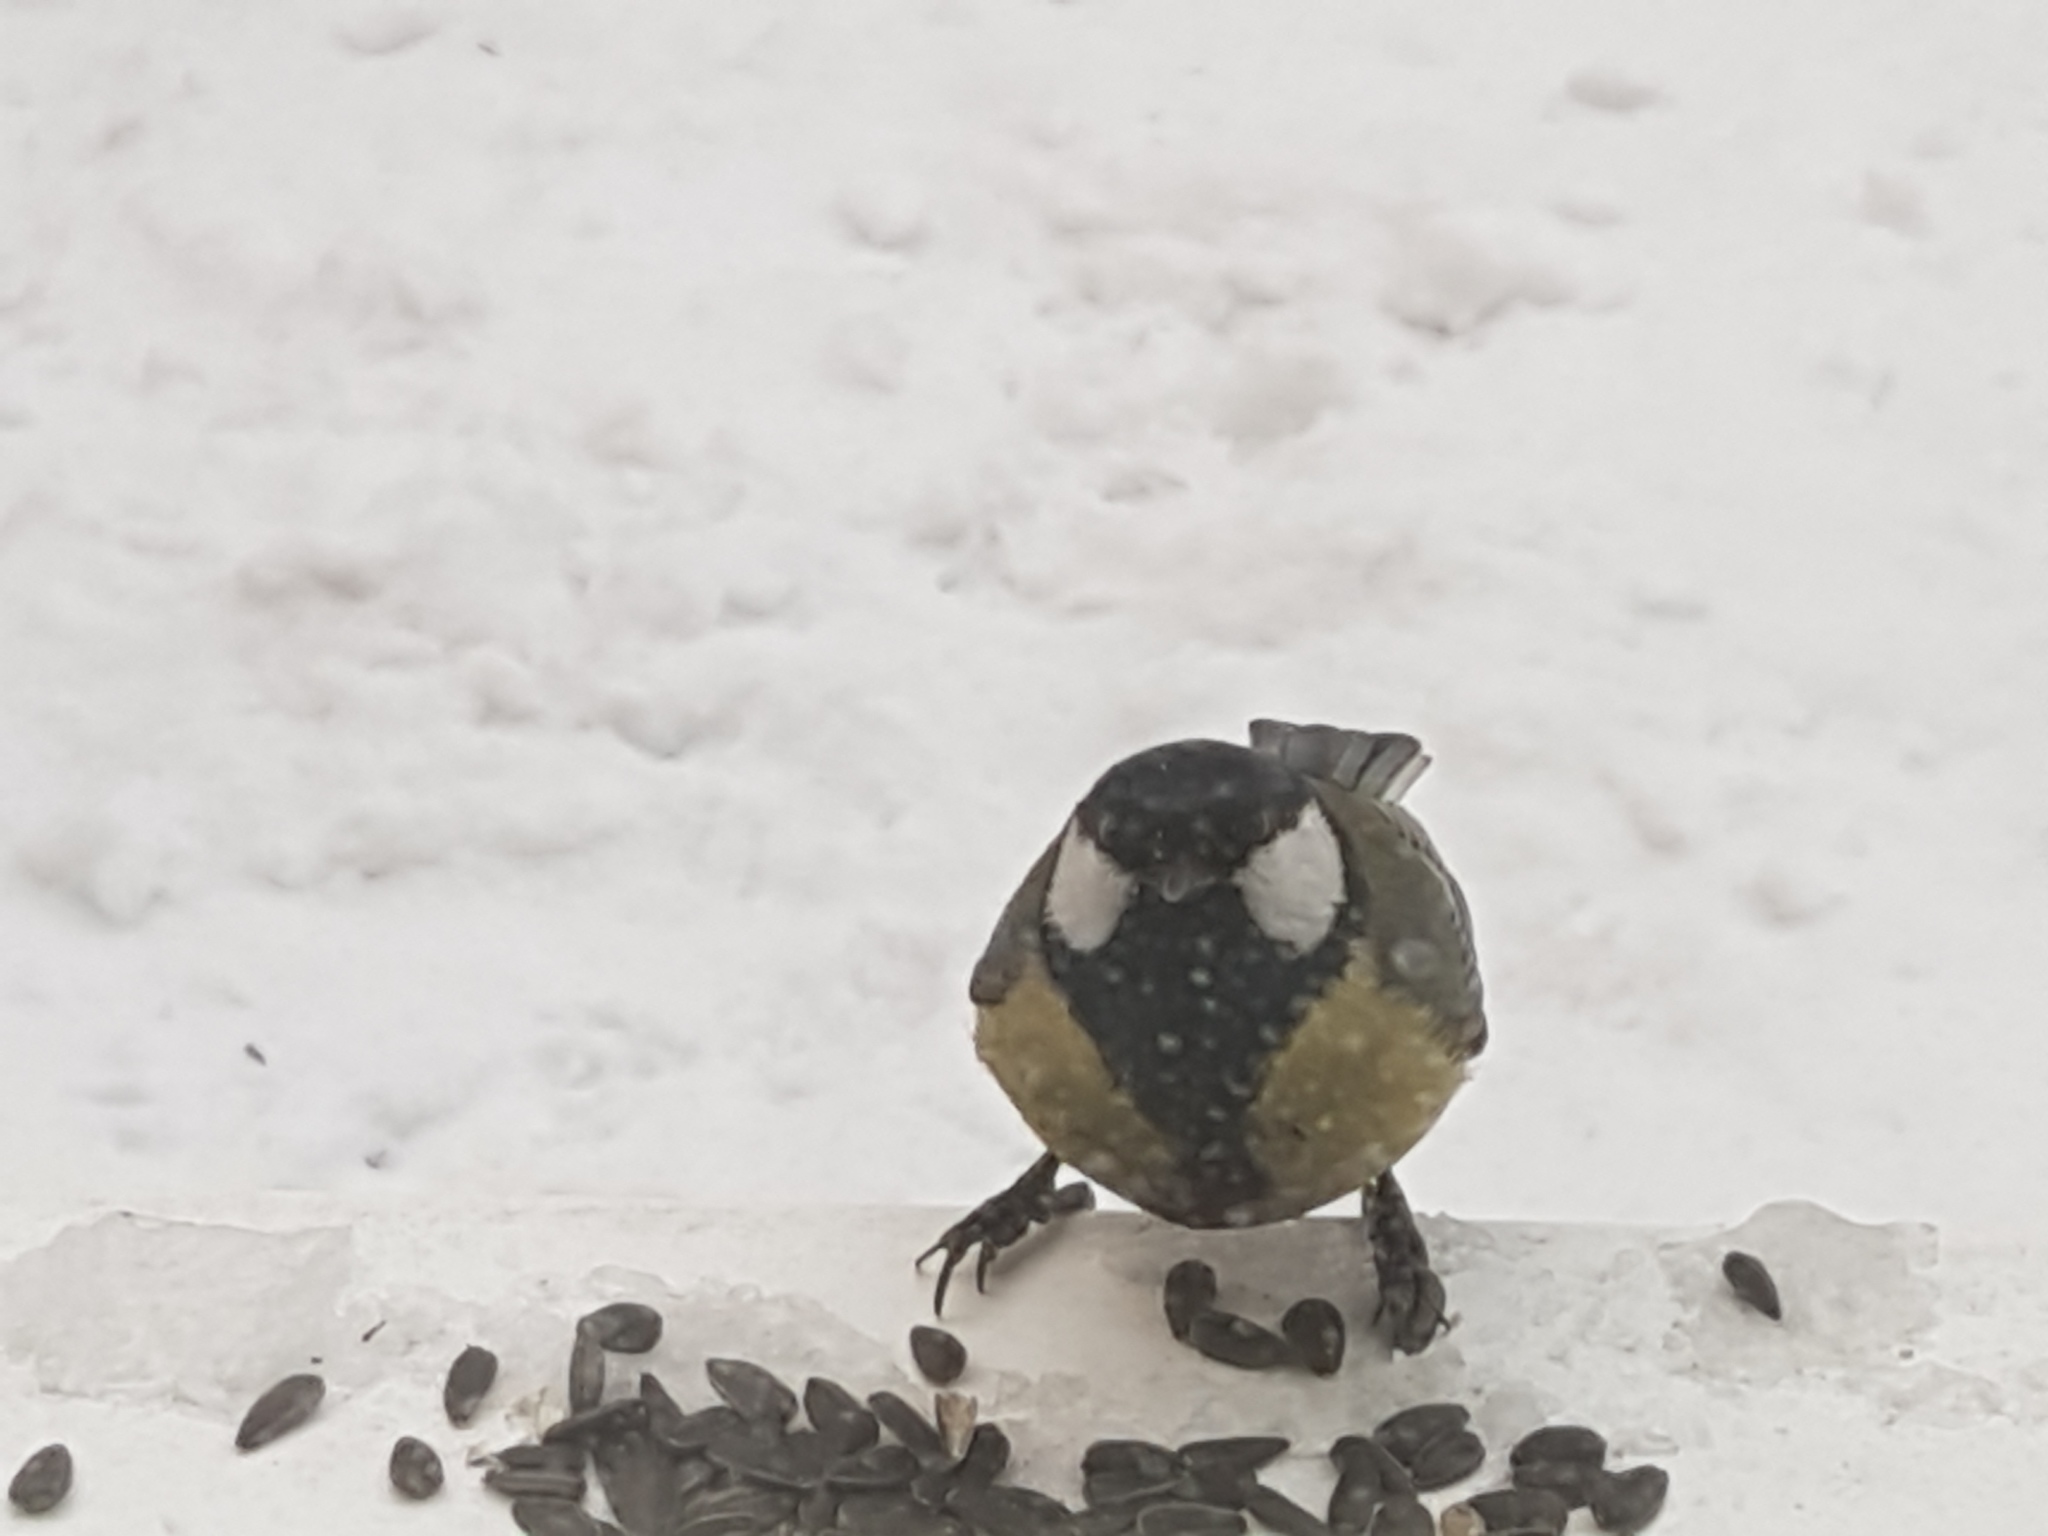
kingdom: Animalia
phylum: Chordata
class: Aves
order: Passeriformes
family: Paridae
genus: Parus
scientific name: Parus major
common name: Great tit
